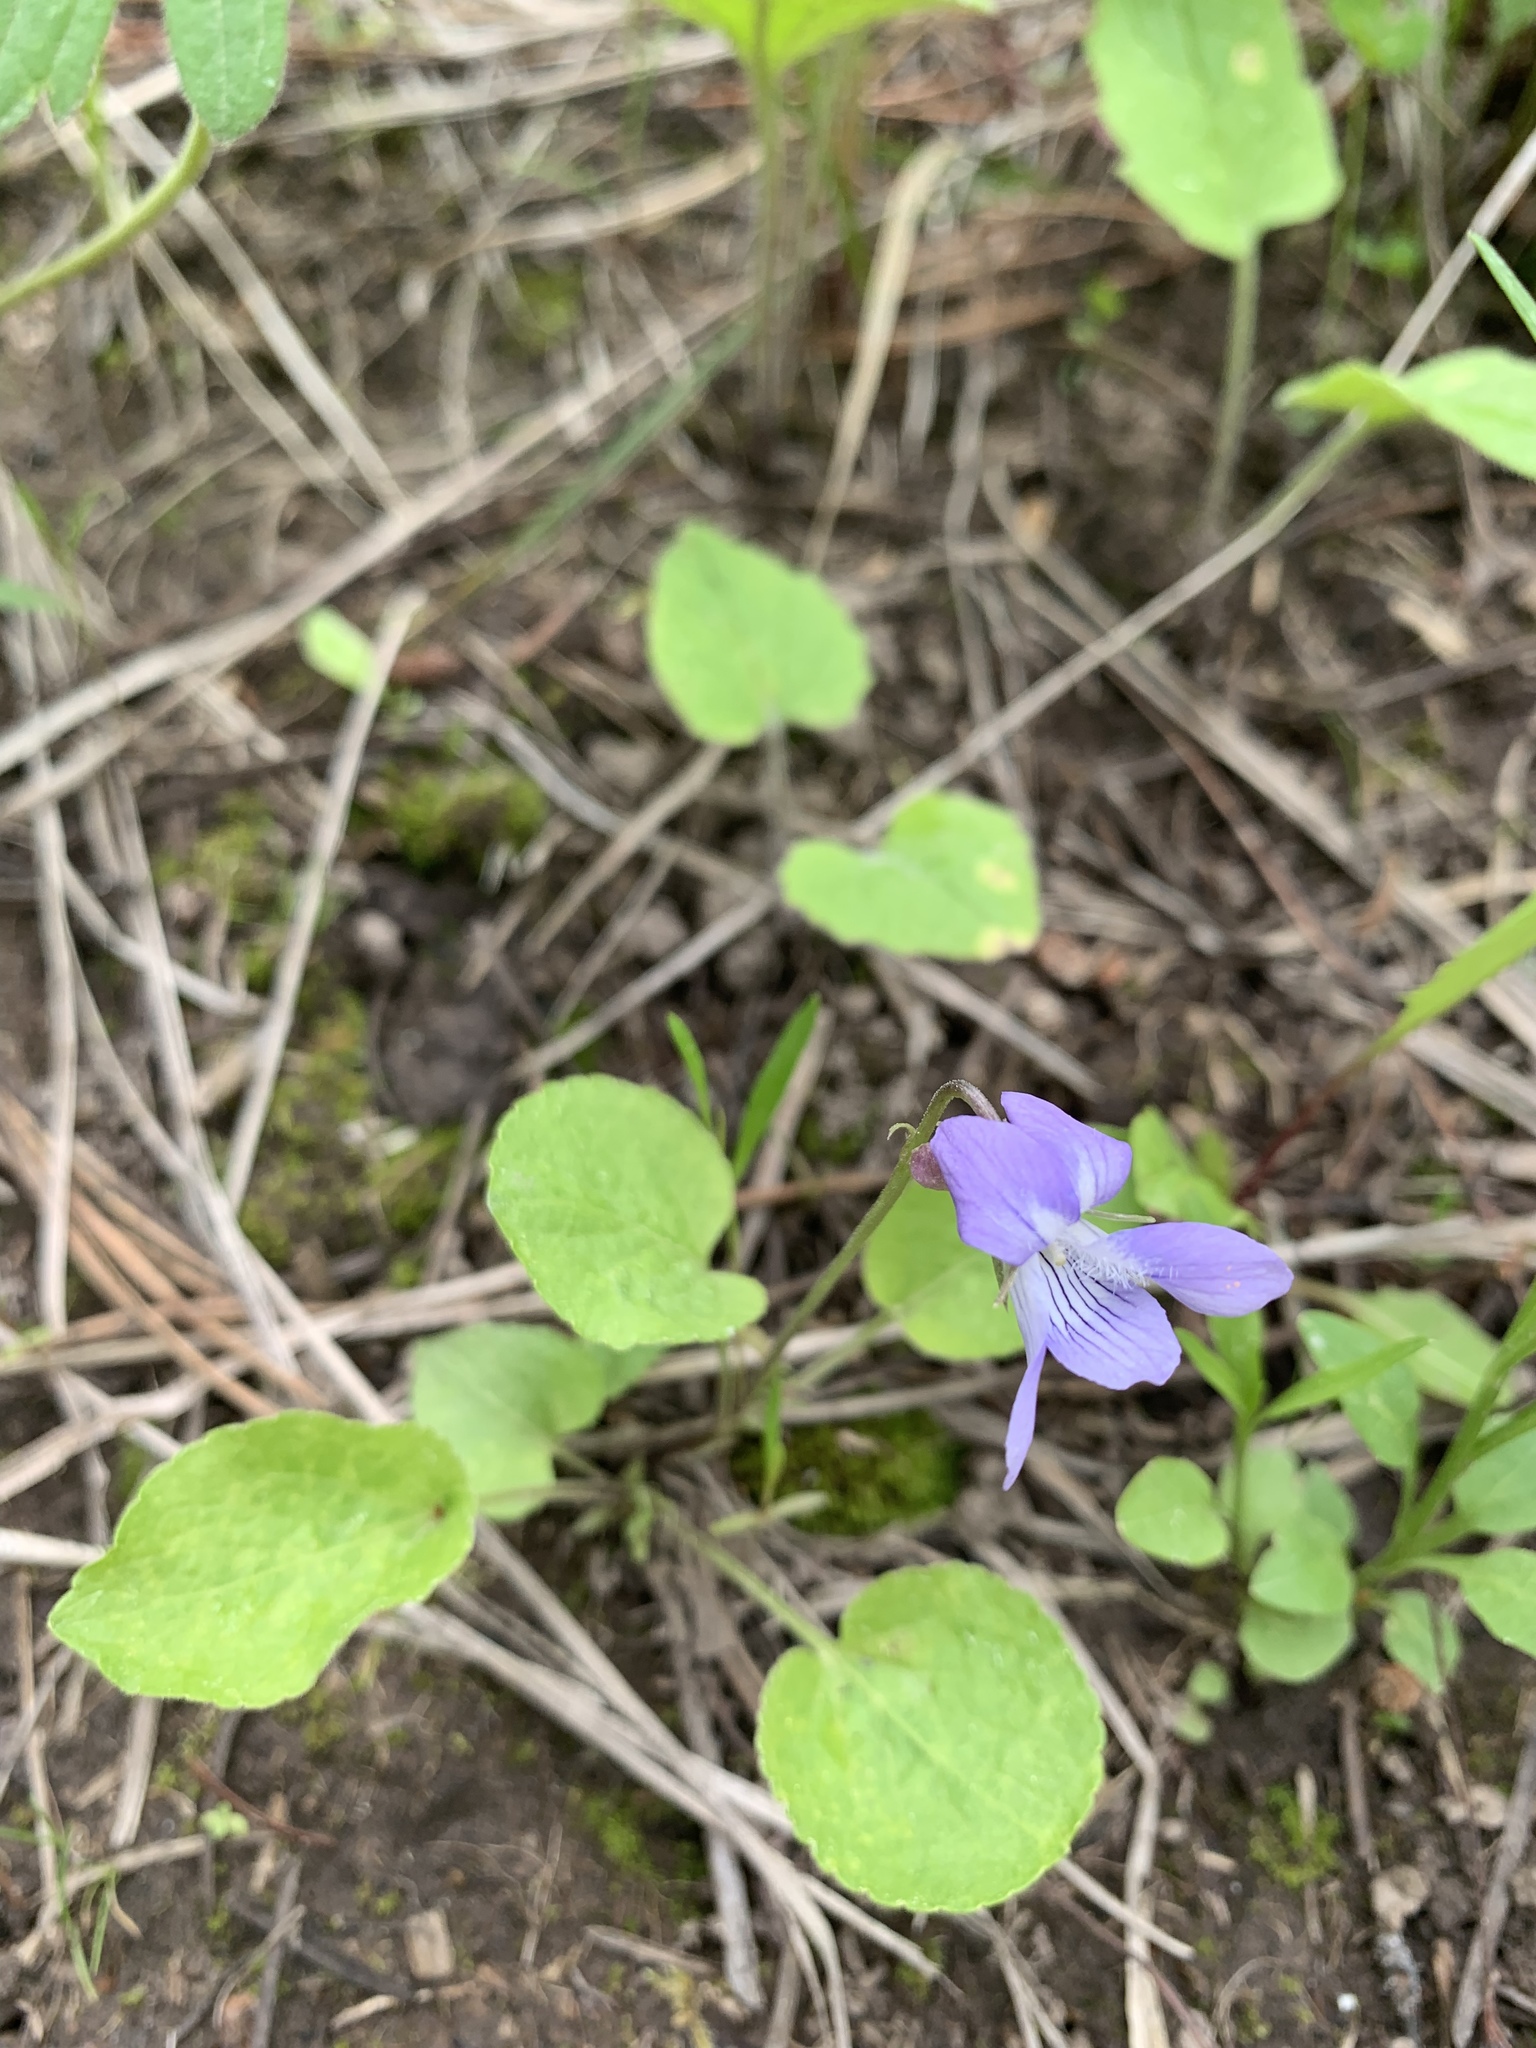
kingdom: Plantae
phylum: Tracheophyta
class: Magnoliopsida
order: Malpighiales
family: Violaceae
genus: Viola
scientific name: Viola adunca
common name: Sand violet
